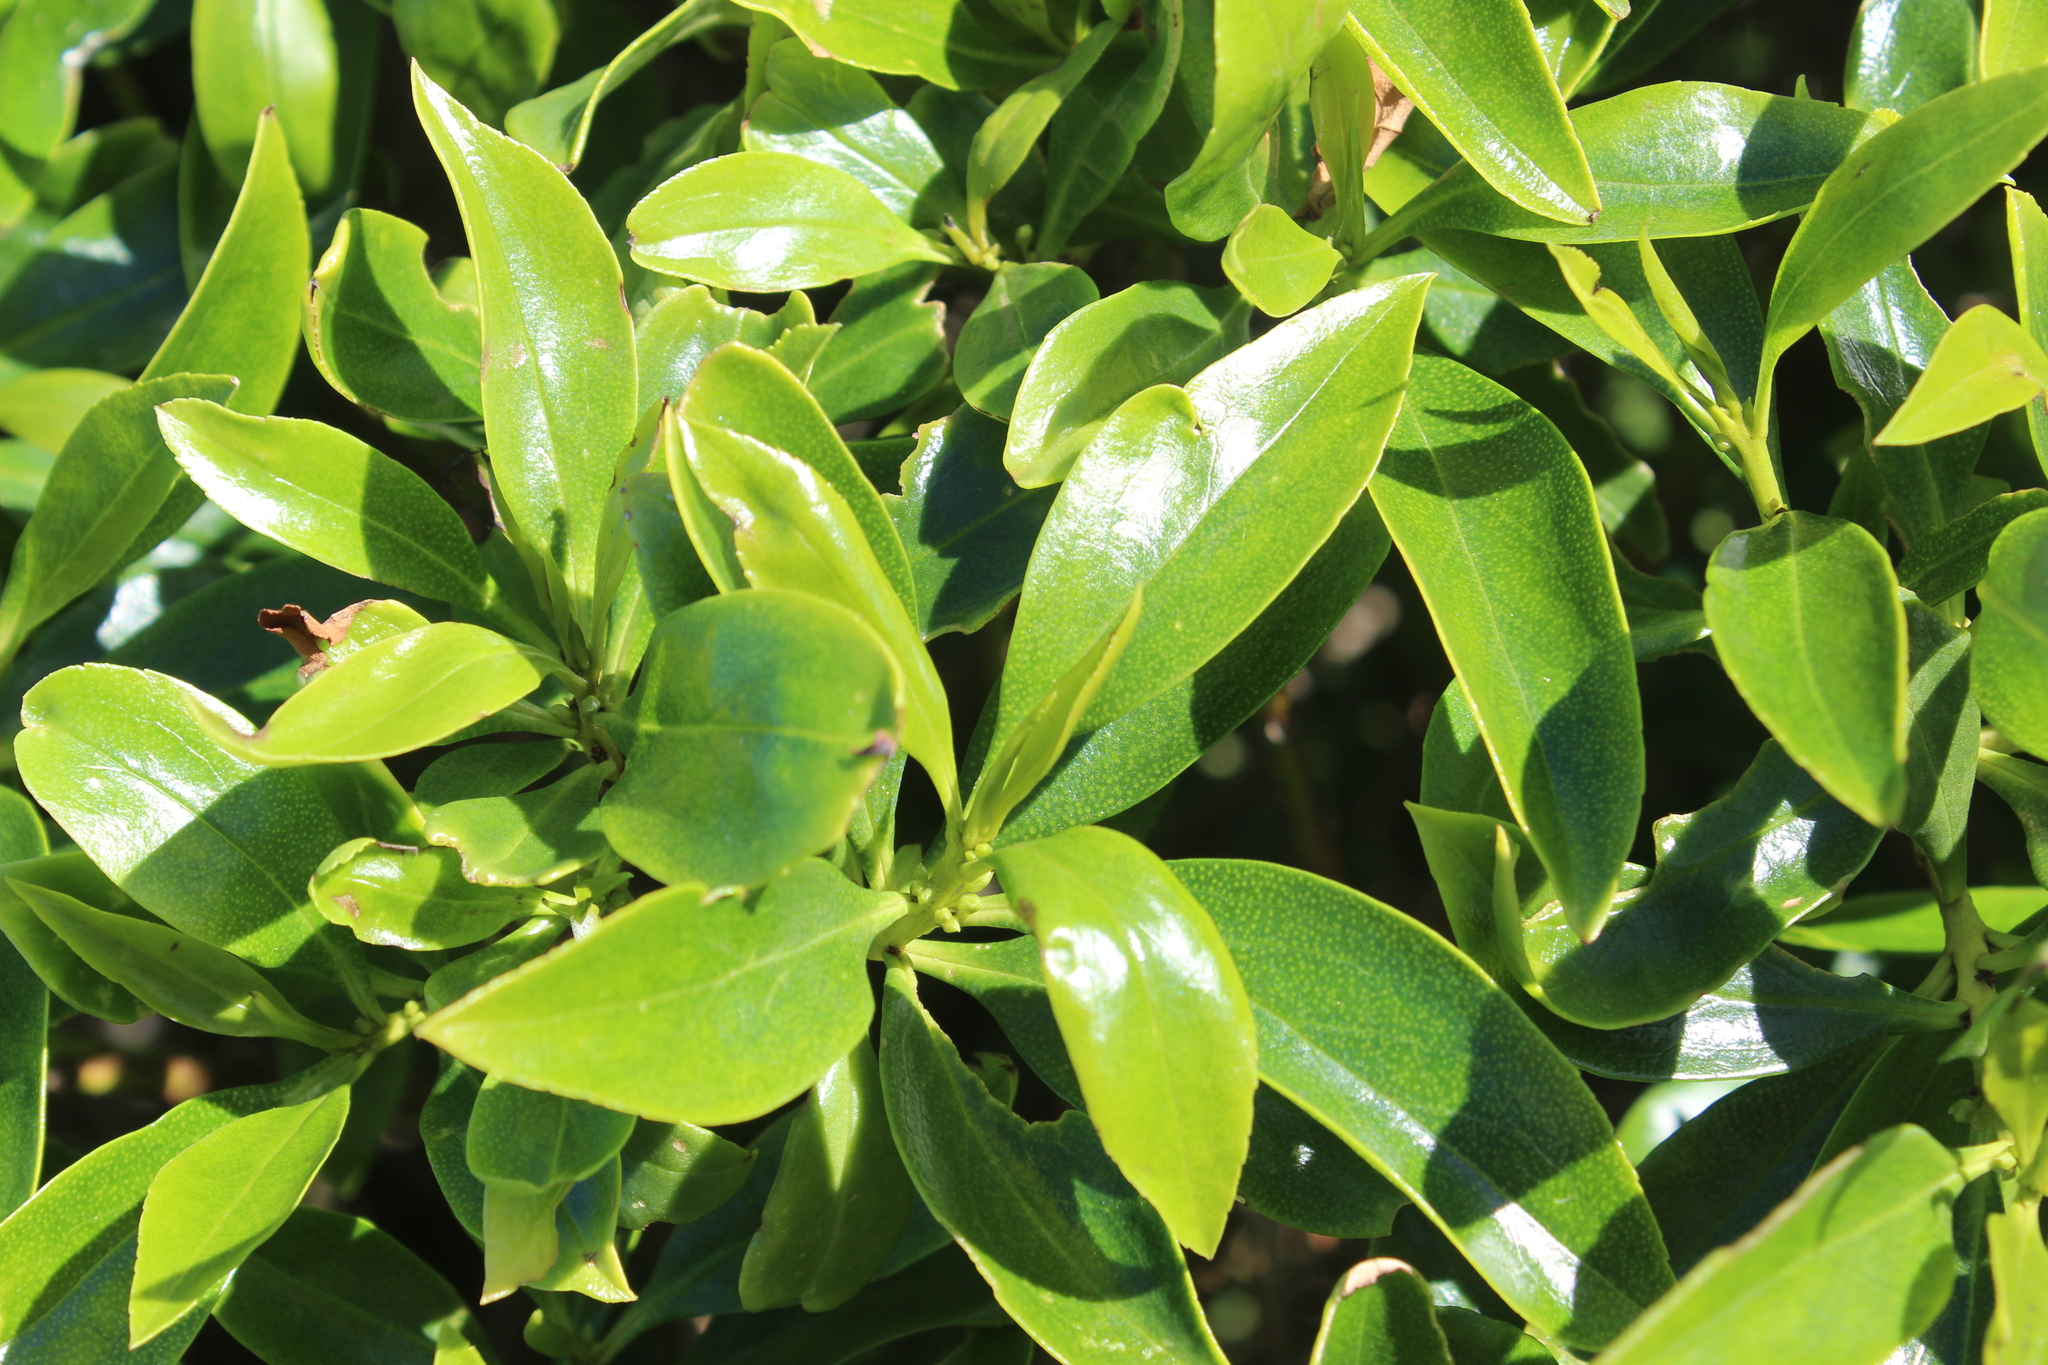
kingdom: Plantae
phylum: Tracheophyta
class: Magnoliopsida
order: Lamiales
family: Scrophulariaceae
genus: Myoporum
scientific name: Myoporum
